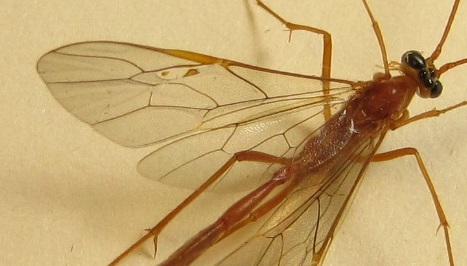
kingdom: Animalia
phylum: Arthropoda
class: Insecta
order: Hymenoptera
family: Ichneumonidae
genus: Enicospilus
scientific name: Enicospilus purgatus
